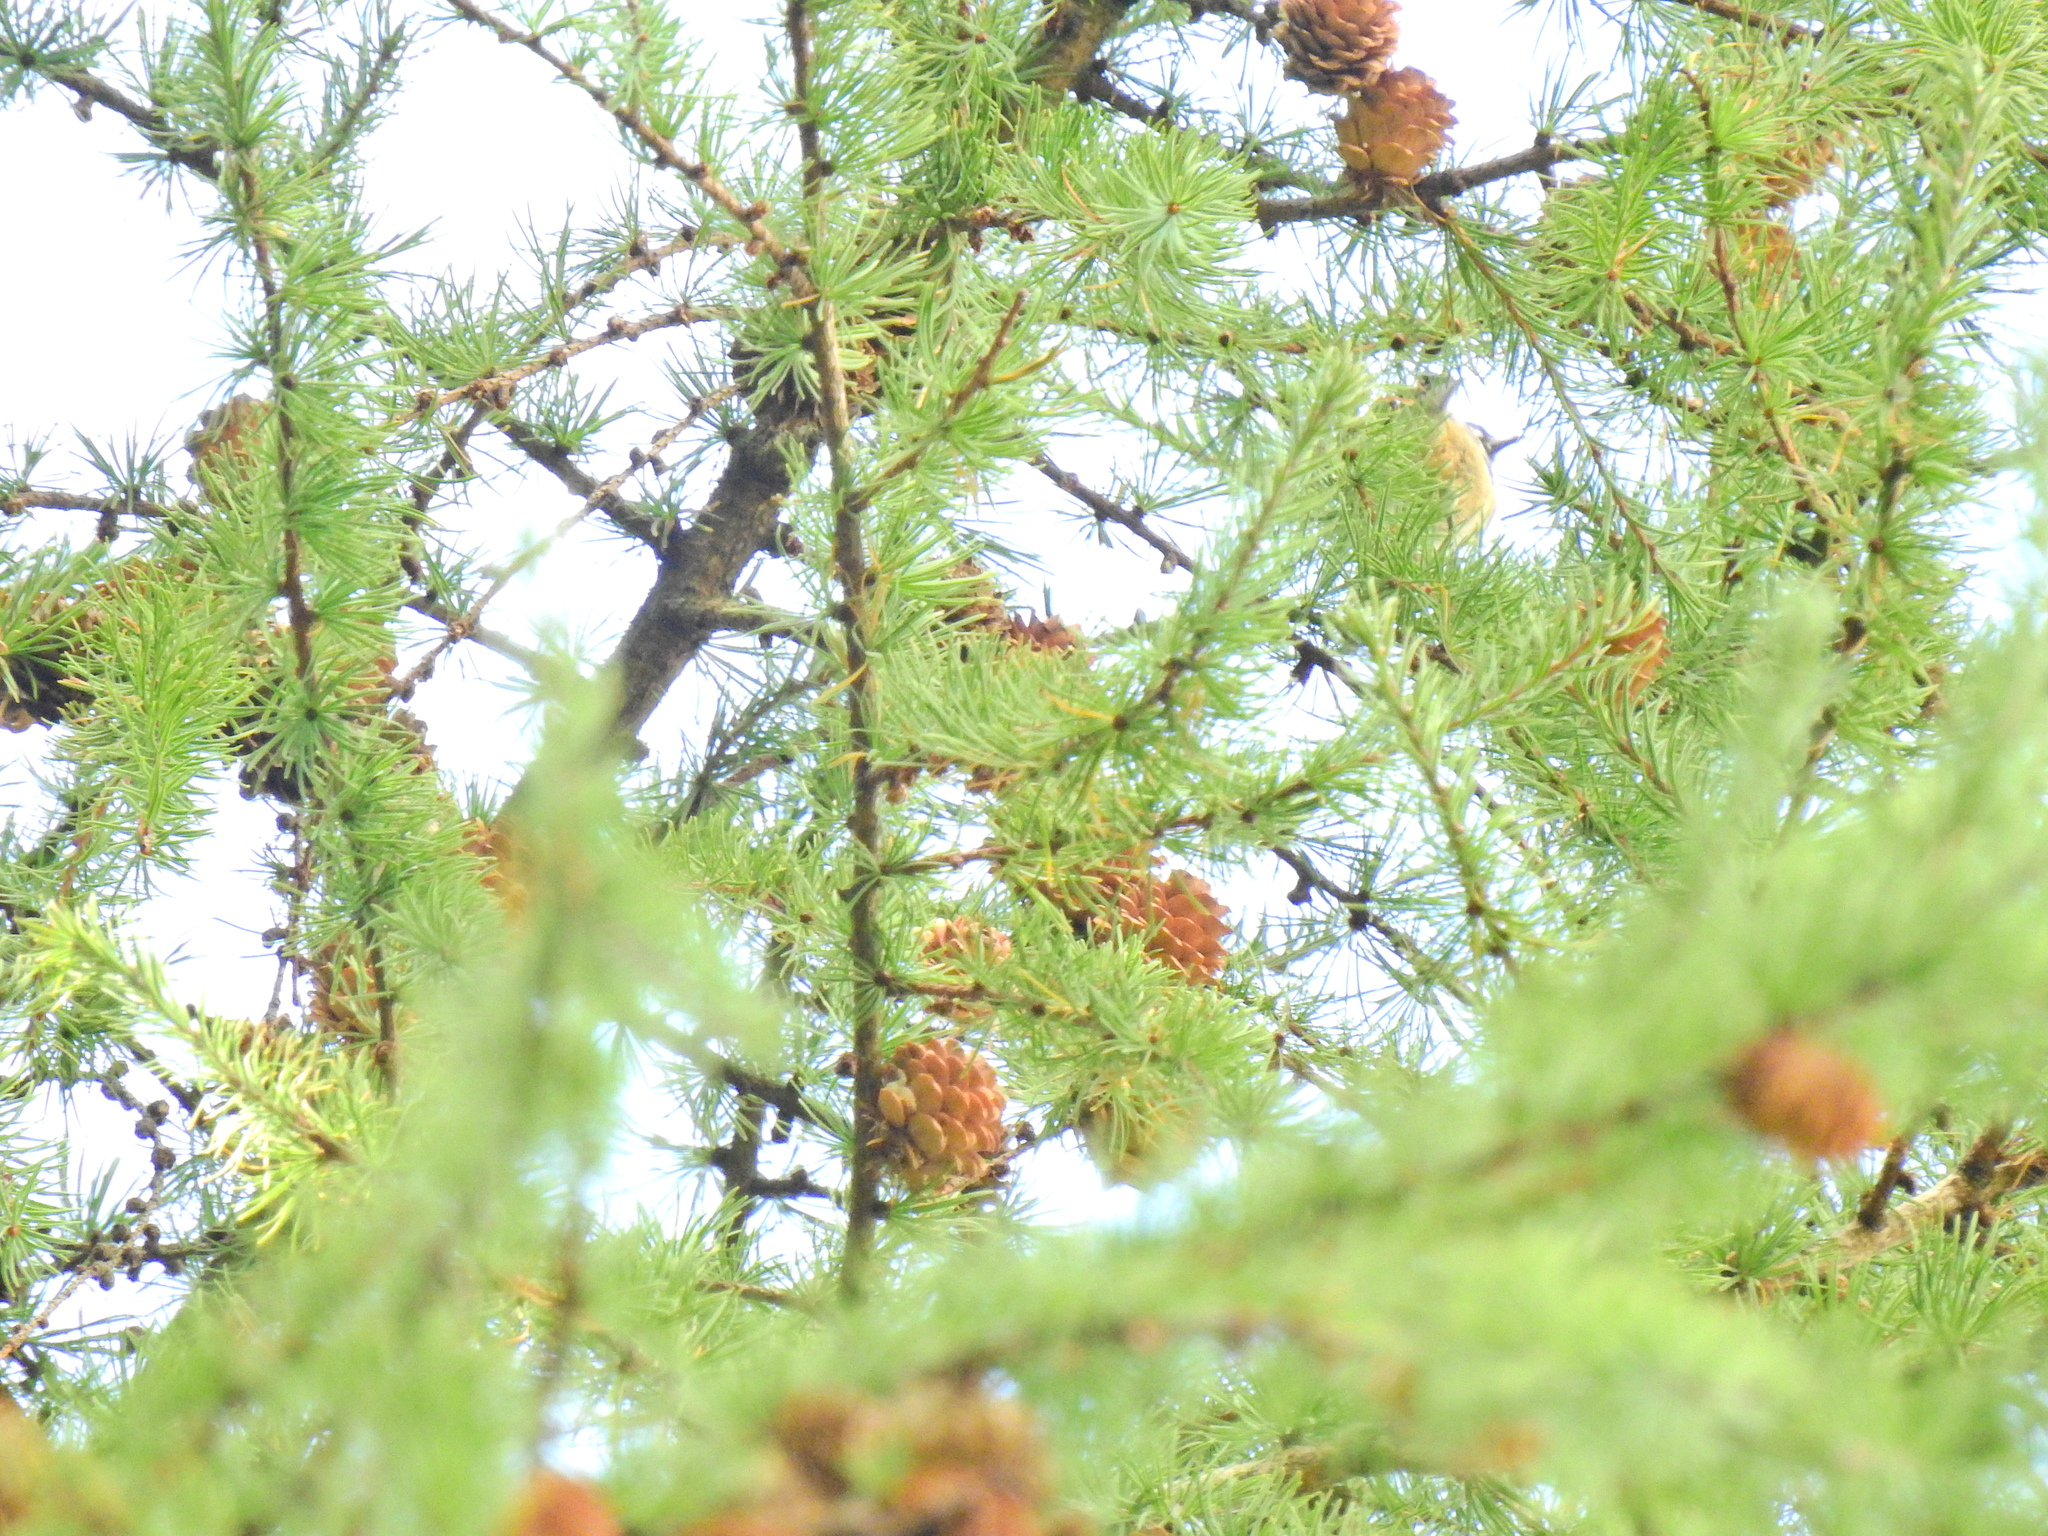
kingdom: Plantae
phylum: Tracheophyta
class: Pinopsida
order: Pinales
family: Pinaceae
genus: Larix
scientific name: Larix marschlinsii
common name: Hybrid larch
